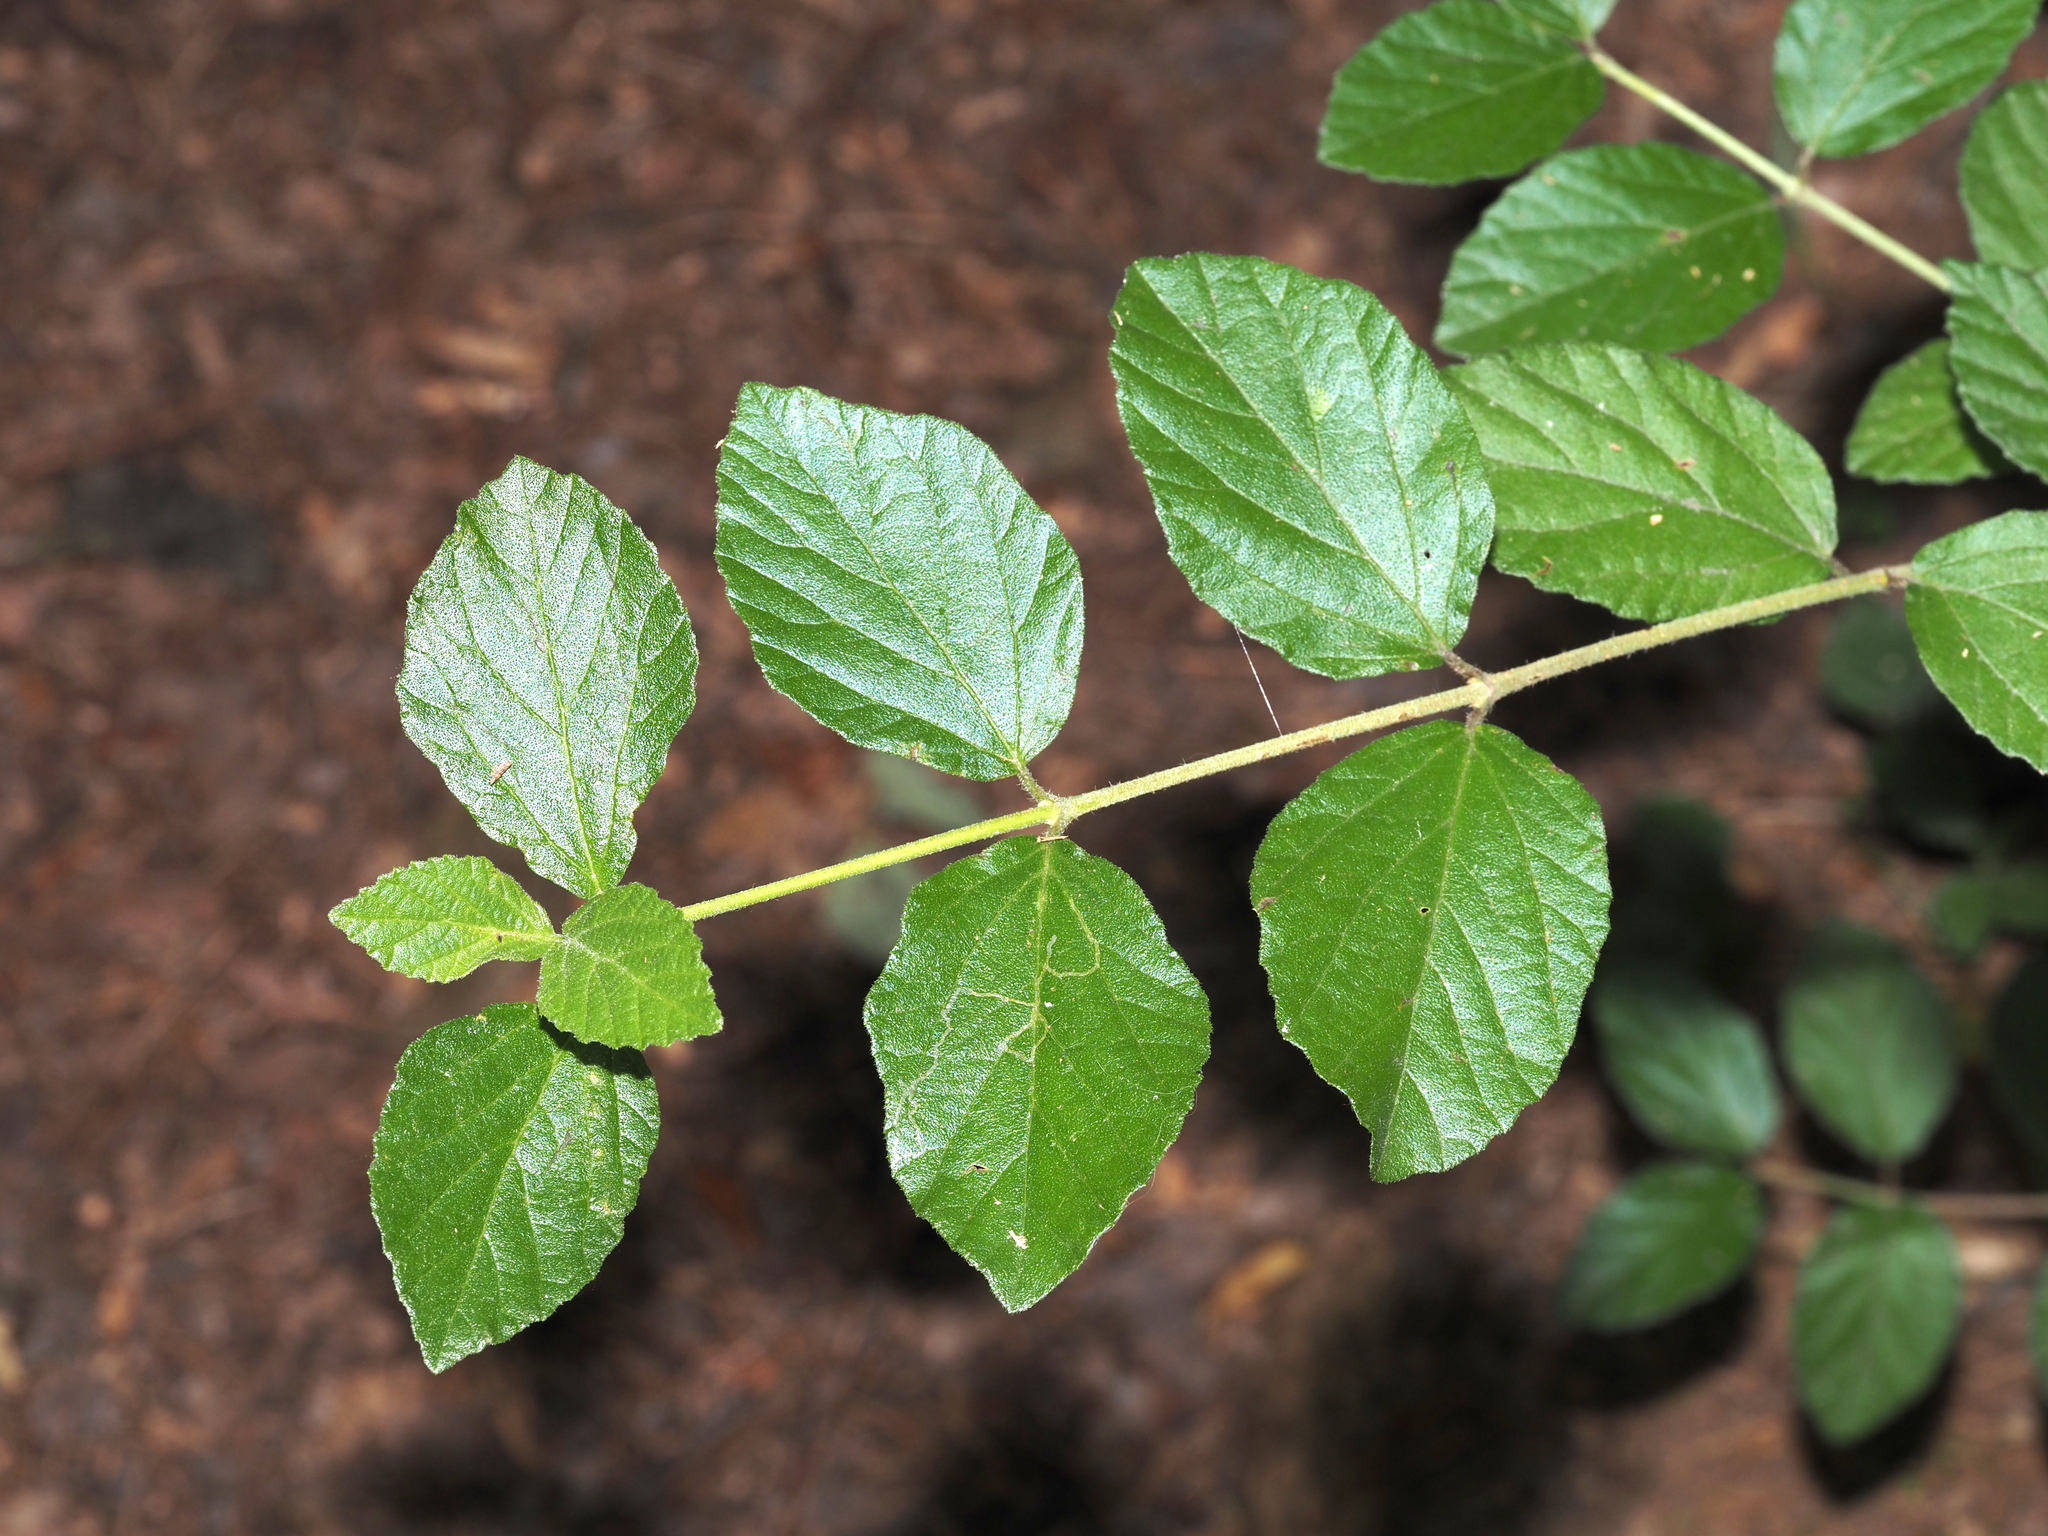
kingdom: Animalia
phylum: Arthropoda
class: Insecta
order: Lepidoptera
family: Gracillariidae
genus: Marmara
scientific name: Marmara viburnella
